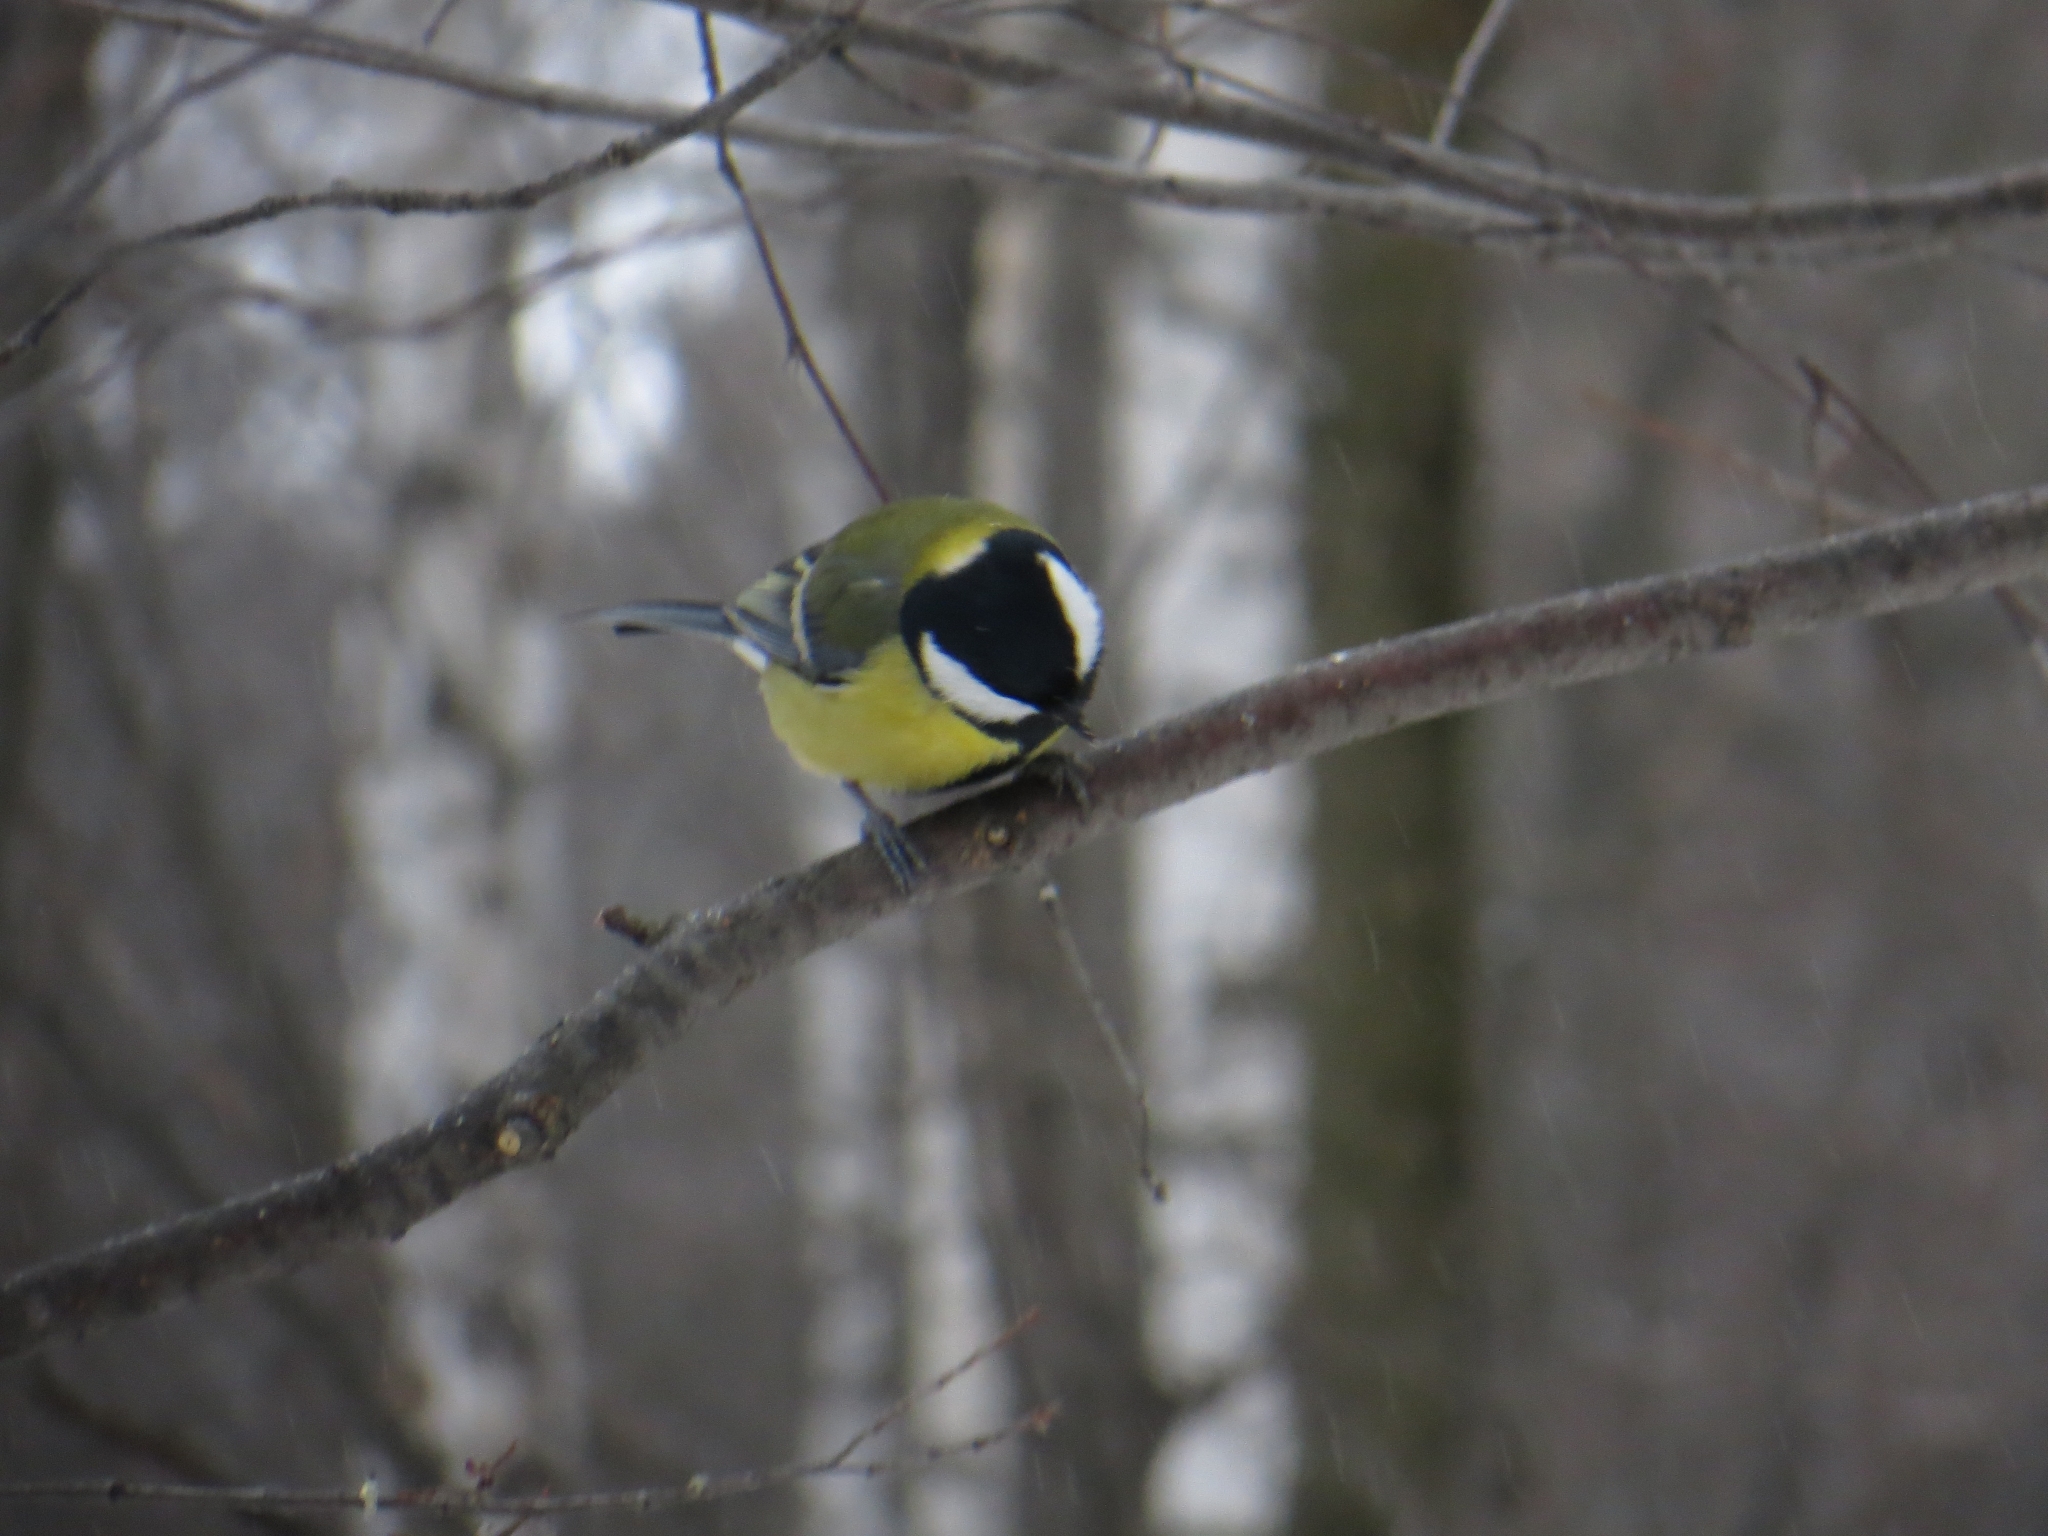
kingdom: Animalia
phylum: Chordata
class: Aves
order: Passeriformes
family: Paridae
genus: Parus
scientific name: Parus major
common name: Great tit
